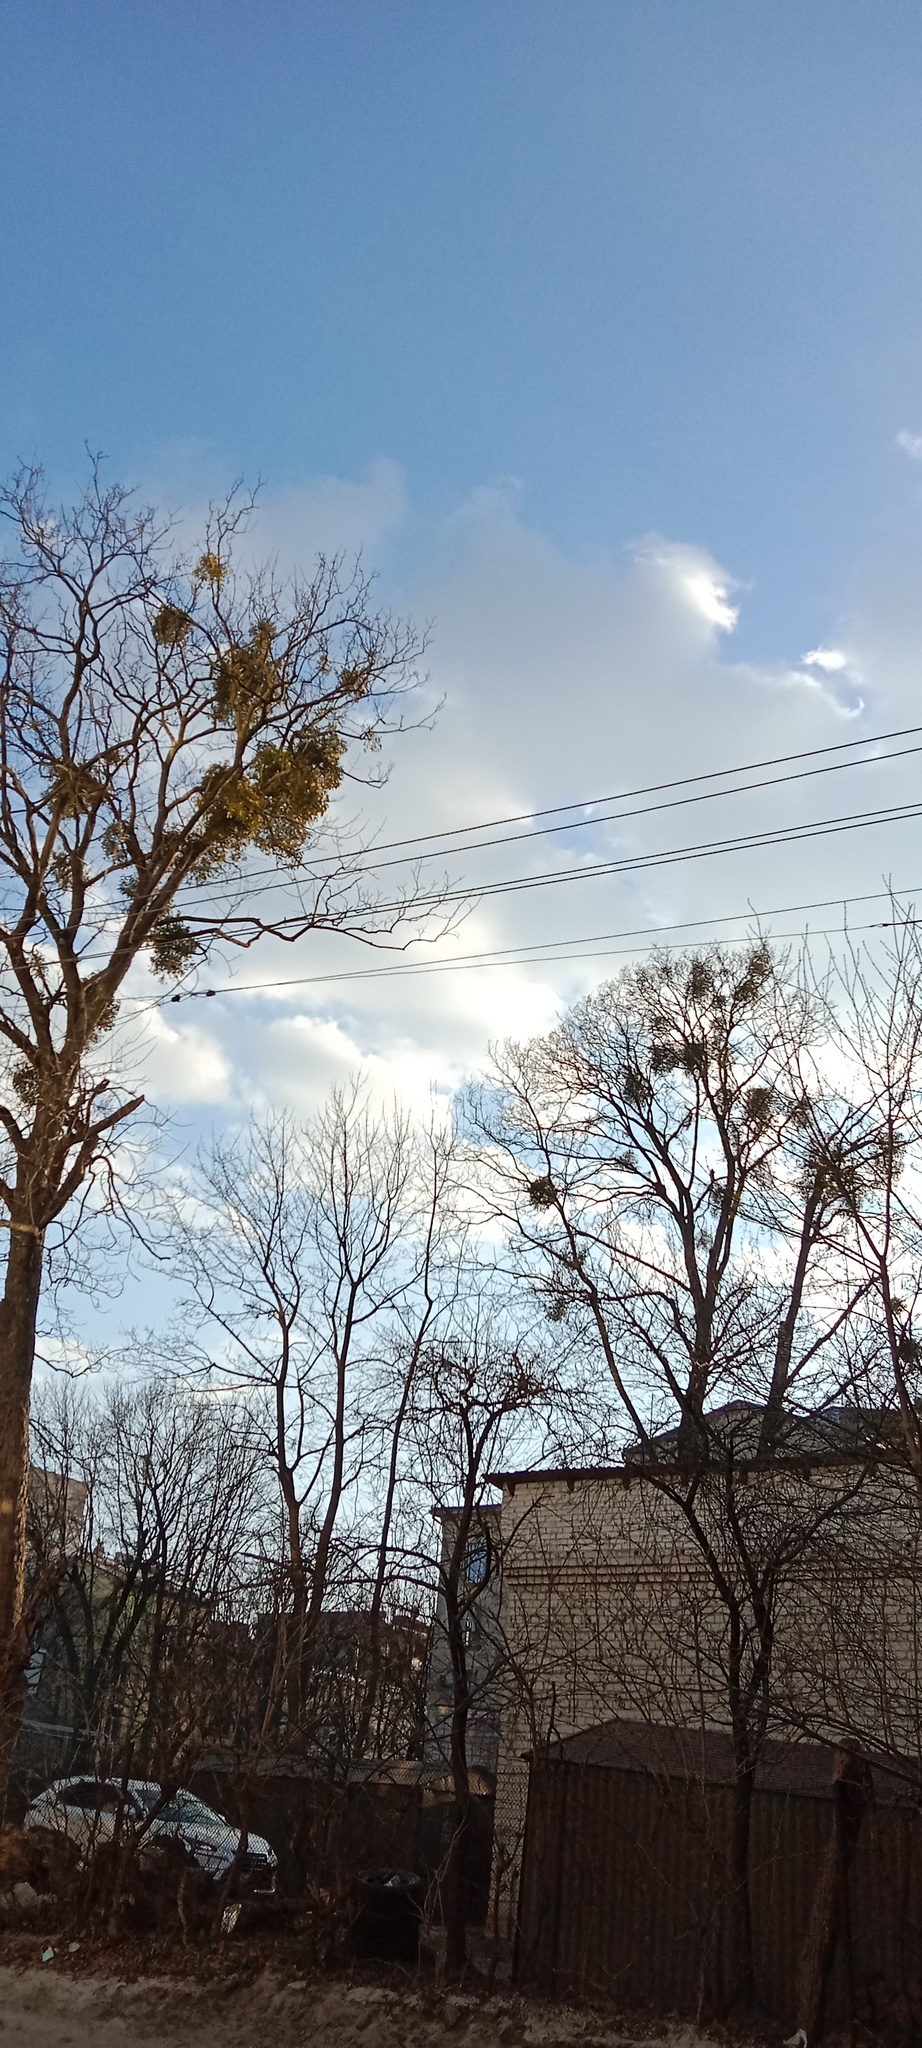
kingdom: Plantae
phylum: Tracheophyta
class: Magnoliopsida
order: Santalales
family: Viscaceae
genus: Viscum
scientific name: Viscum album
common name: Mistletoe
